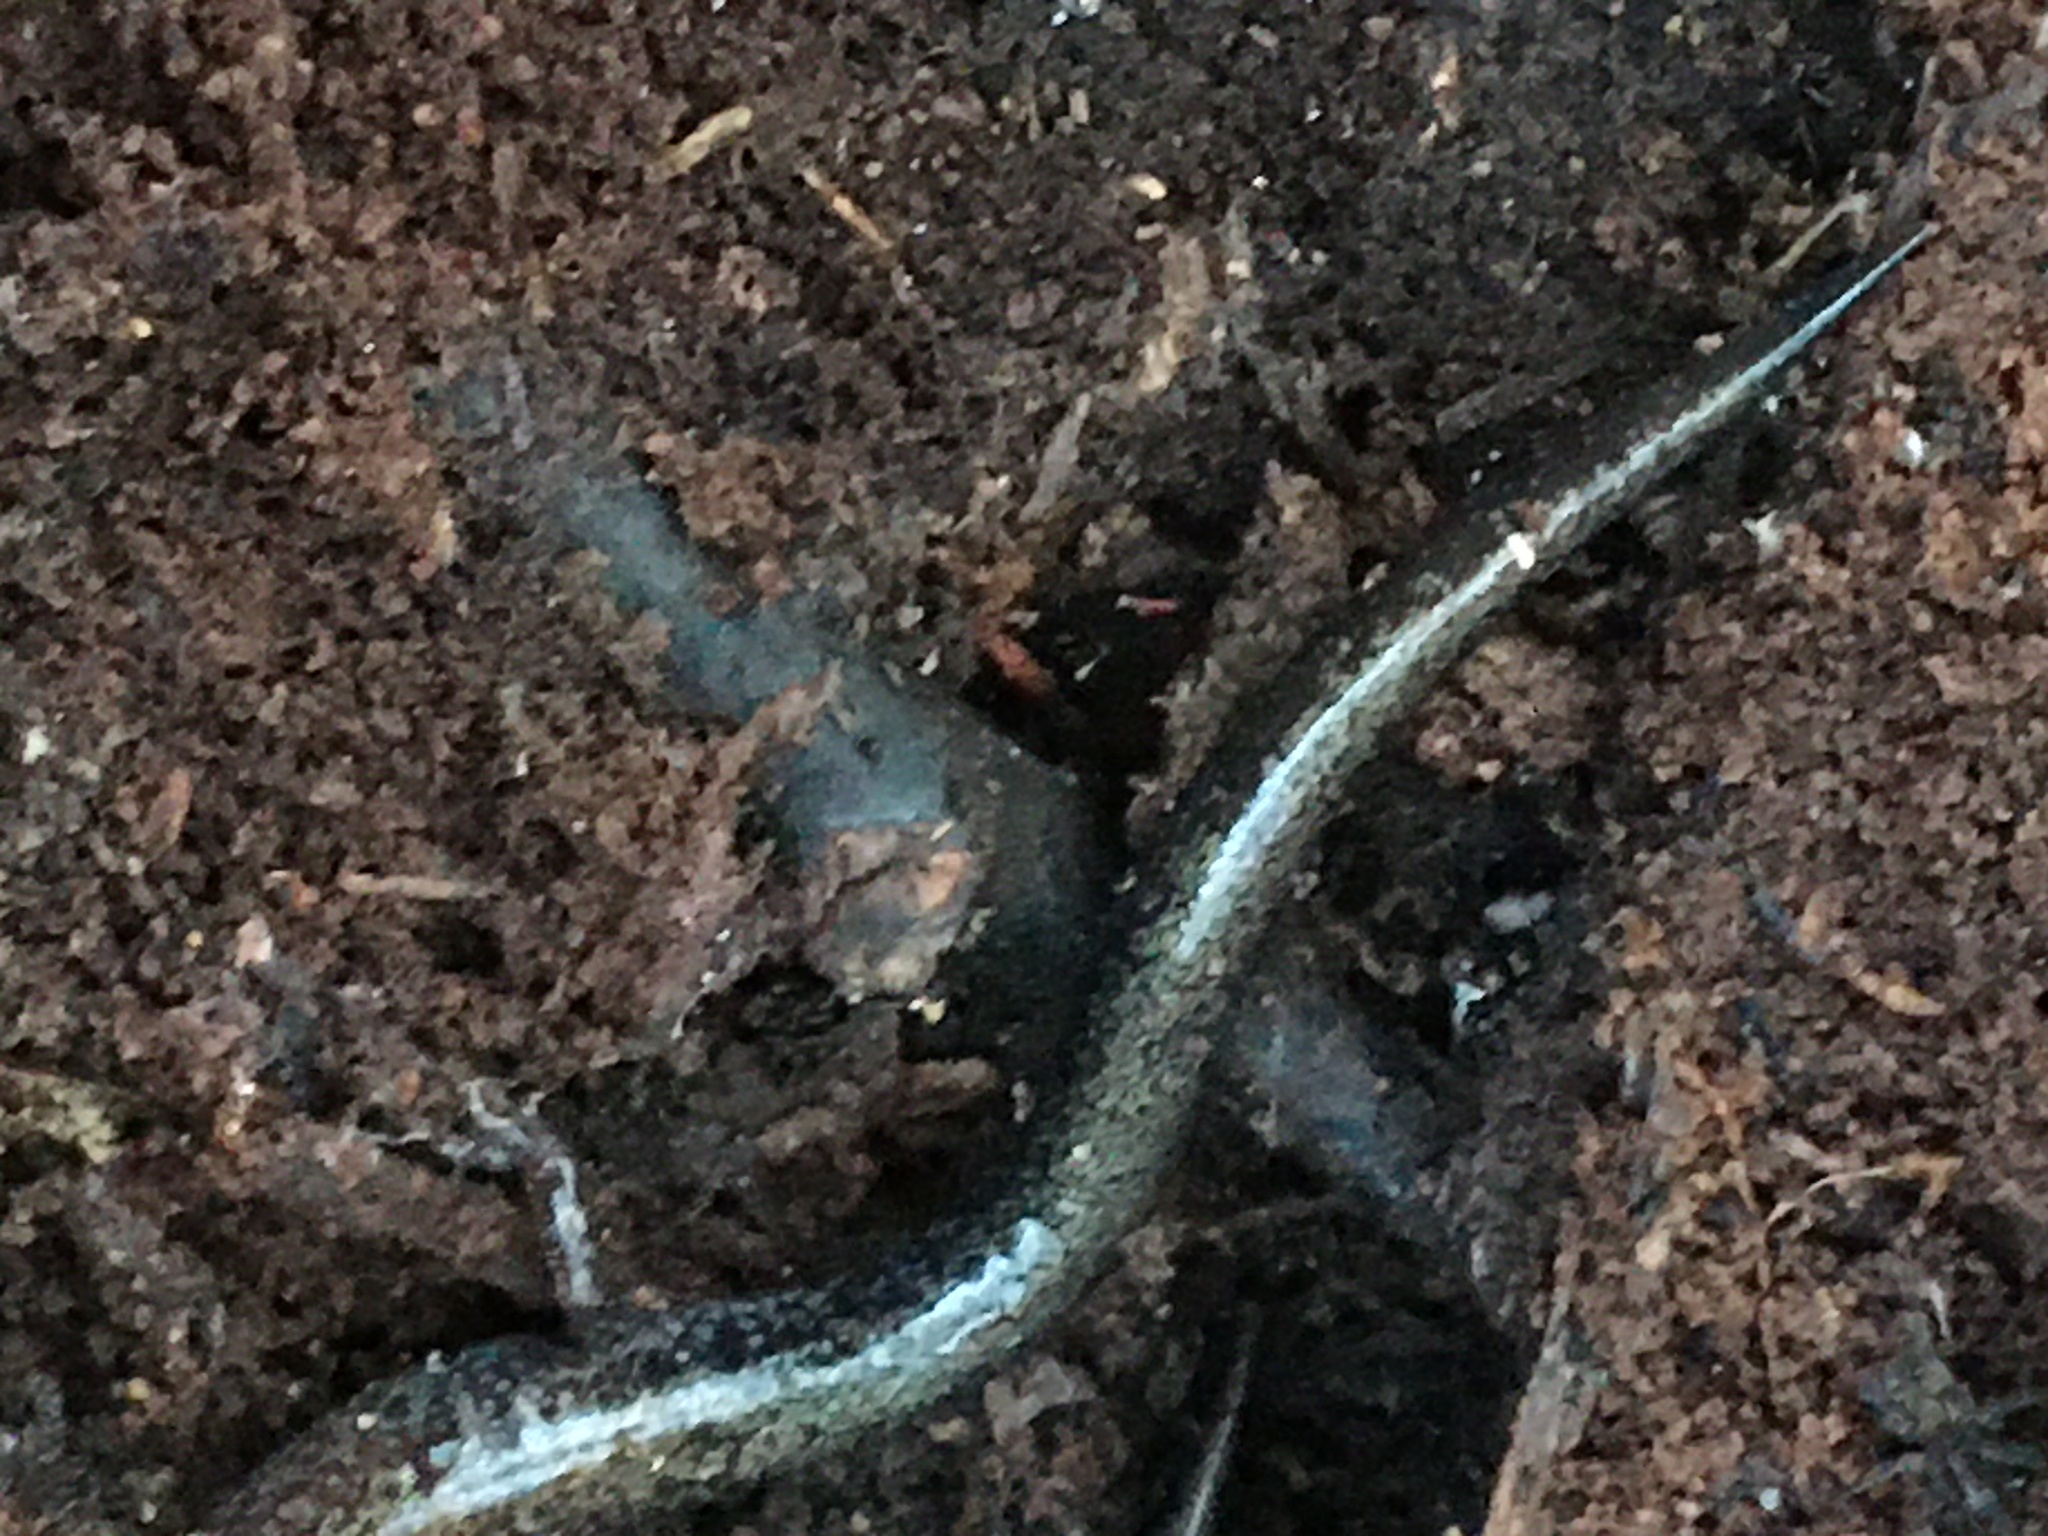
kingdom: Animalia
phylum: Chordata
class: Amphibia
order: Caudata
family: Plethodontidae
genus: Plethodon
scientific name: Plethodon cinereus
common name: Redback salamander
